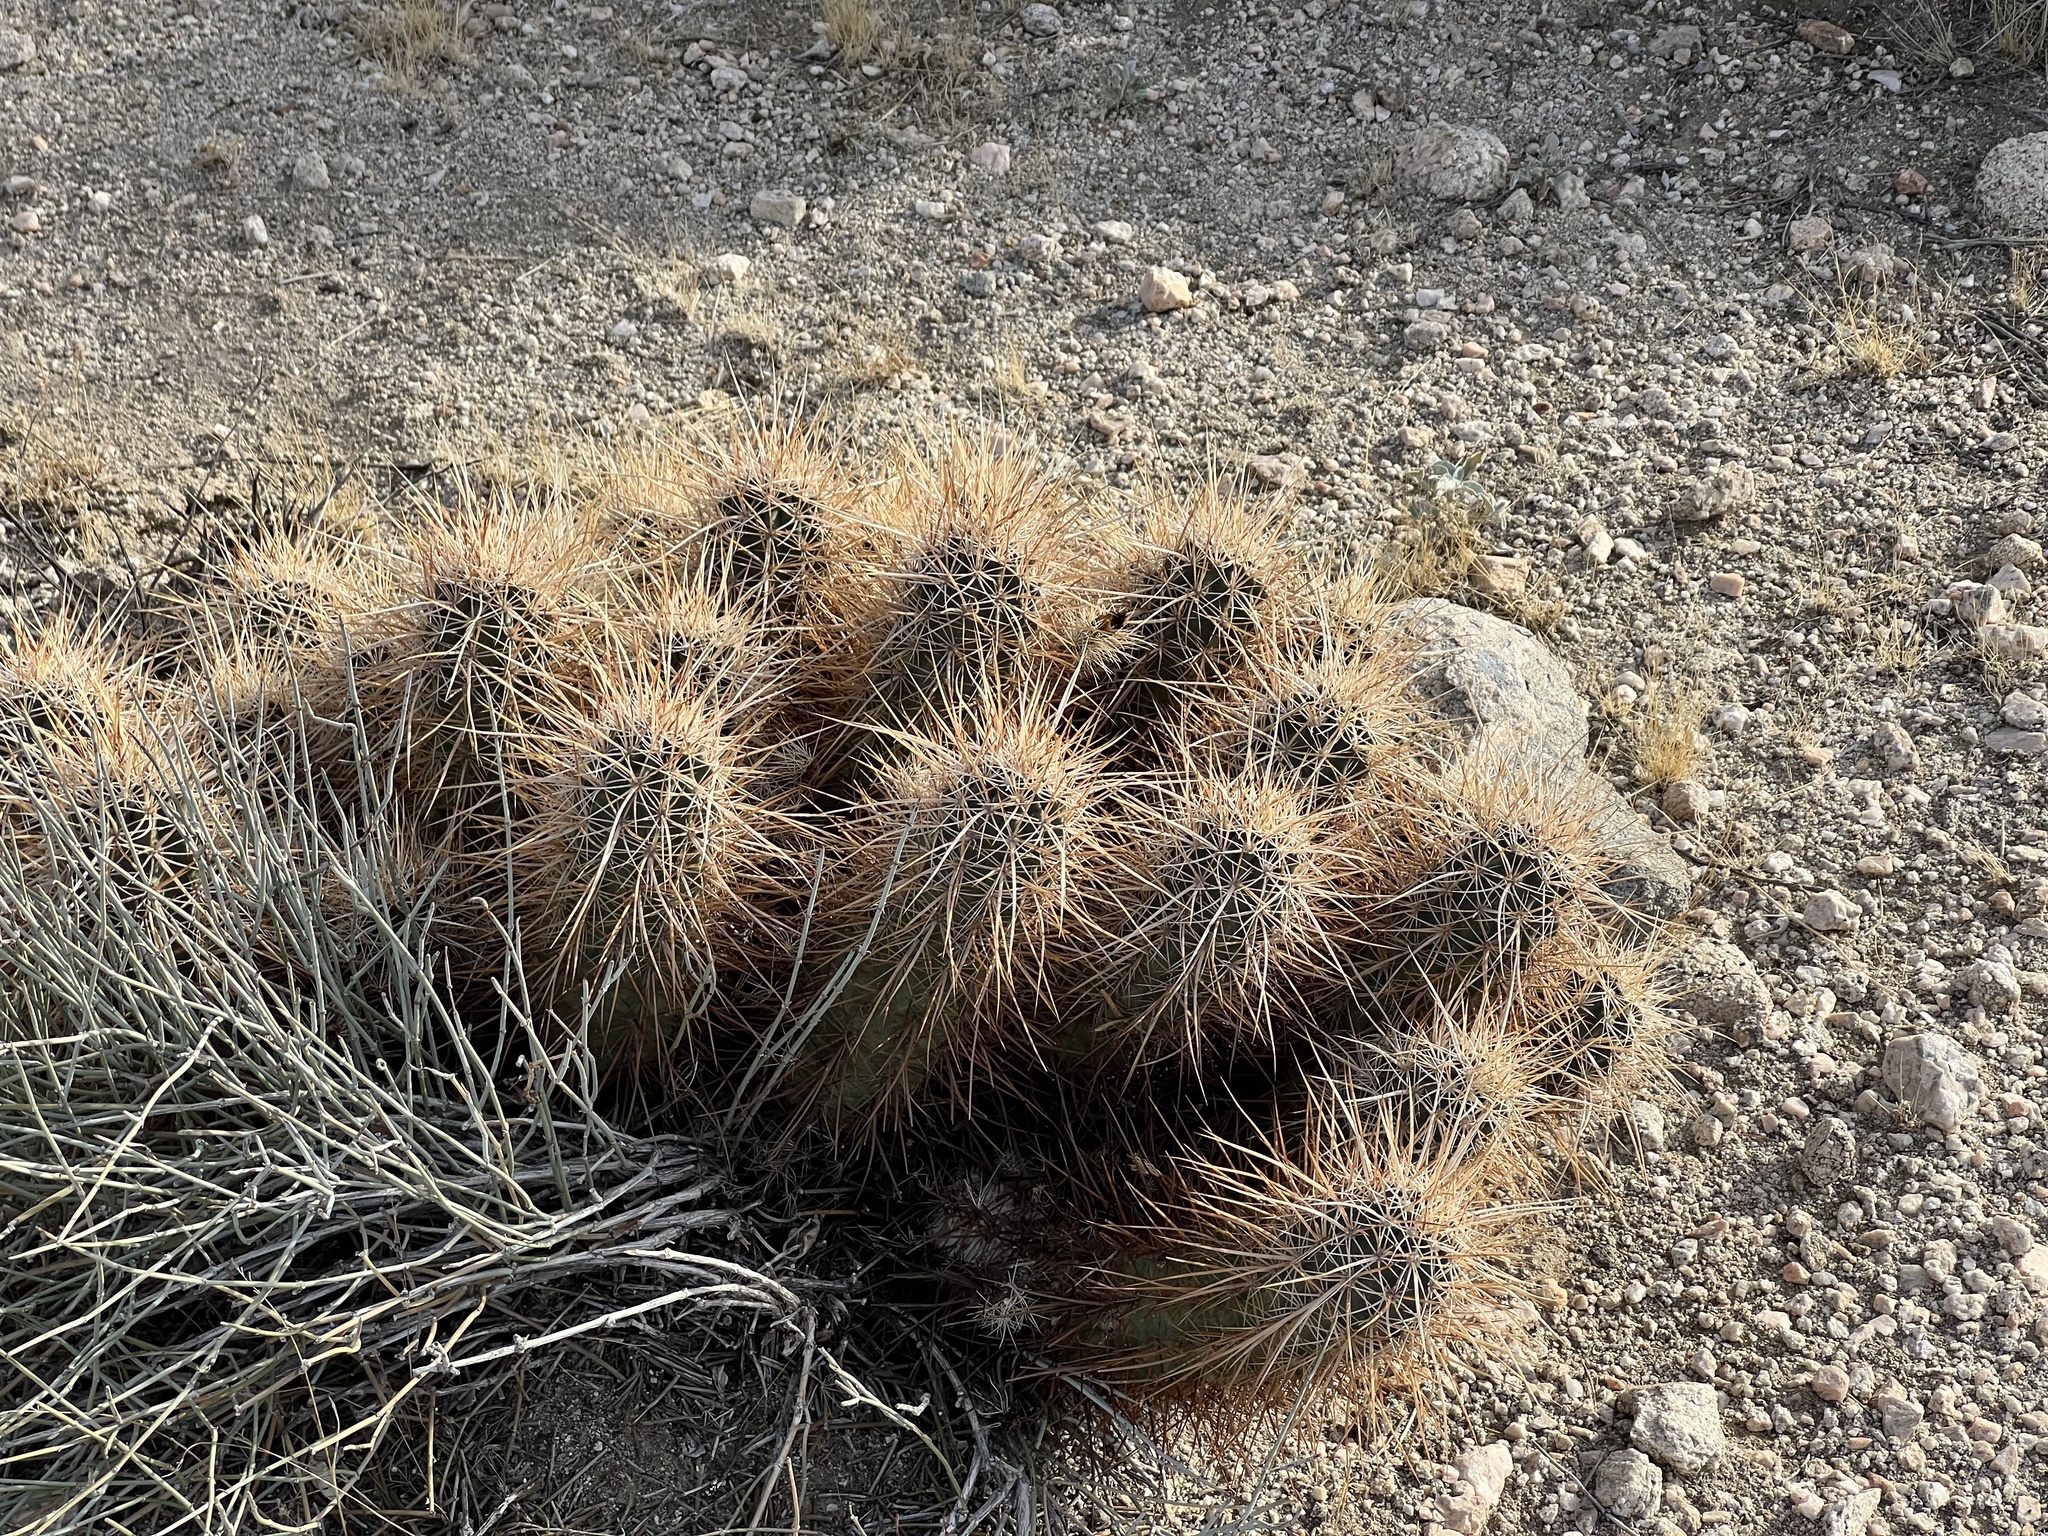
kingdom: Plantae
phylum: Tracheophyta
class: Magnoliopsida
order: Caryophyllales
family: Cactaceae
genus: Echinocereus
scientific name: Echinocereus engelmannii
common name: Engelmann's hedgehog cactus
